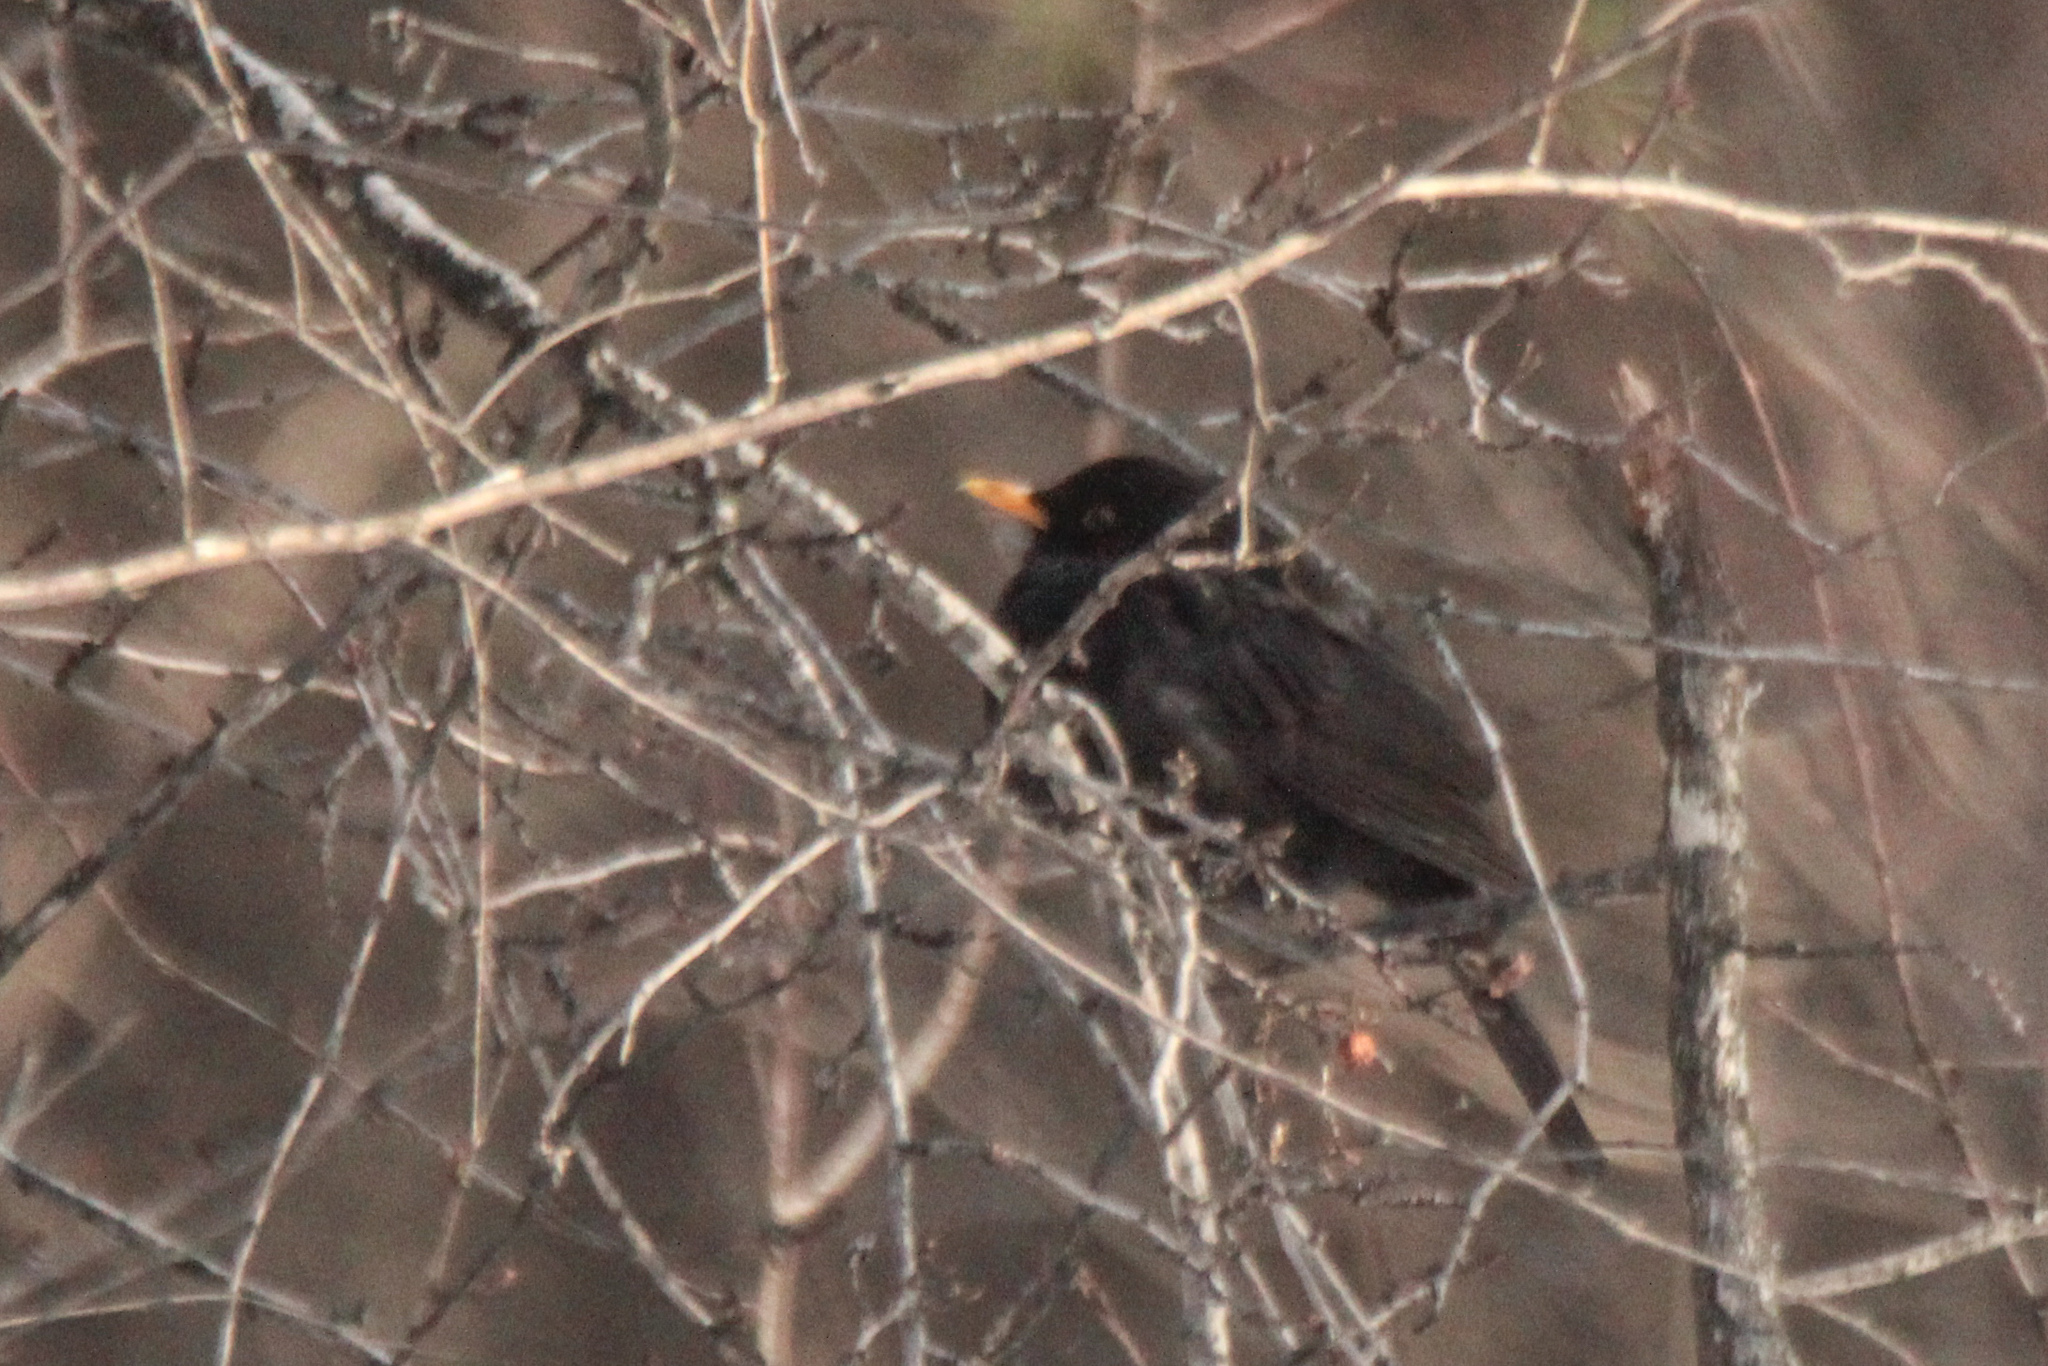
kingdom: Animalia
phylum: Chordata
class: Aves
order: Passeriformes
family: Turdidae
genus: Turdus
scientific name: Turdus merula
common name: Common blackbird
